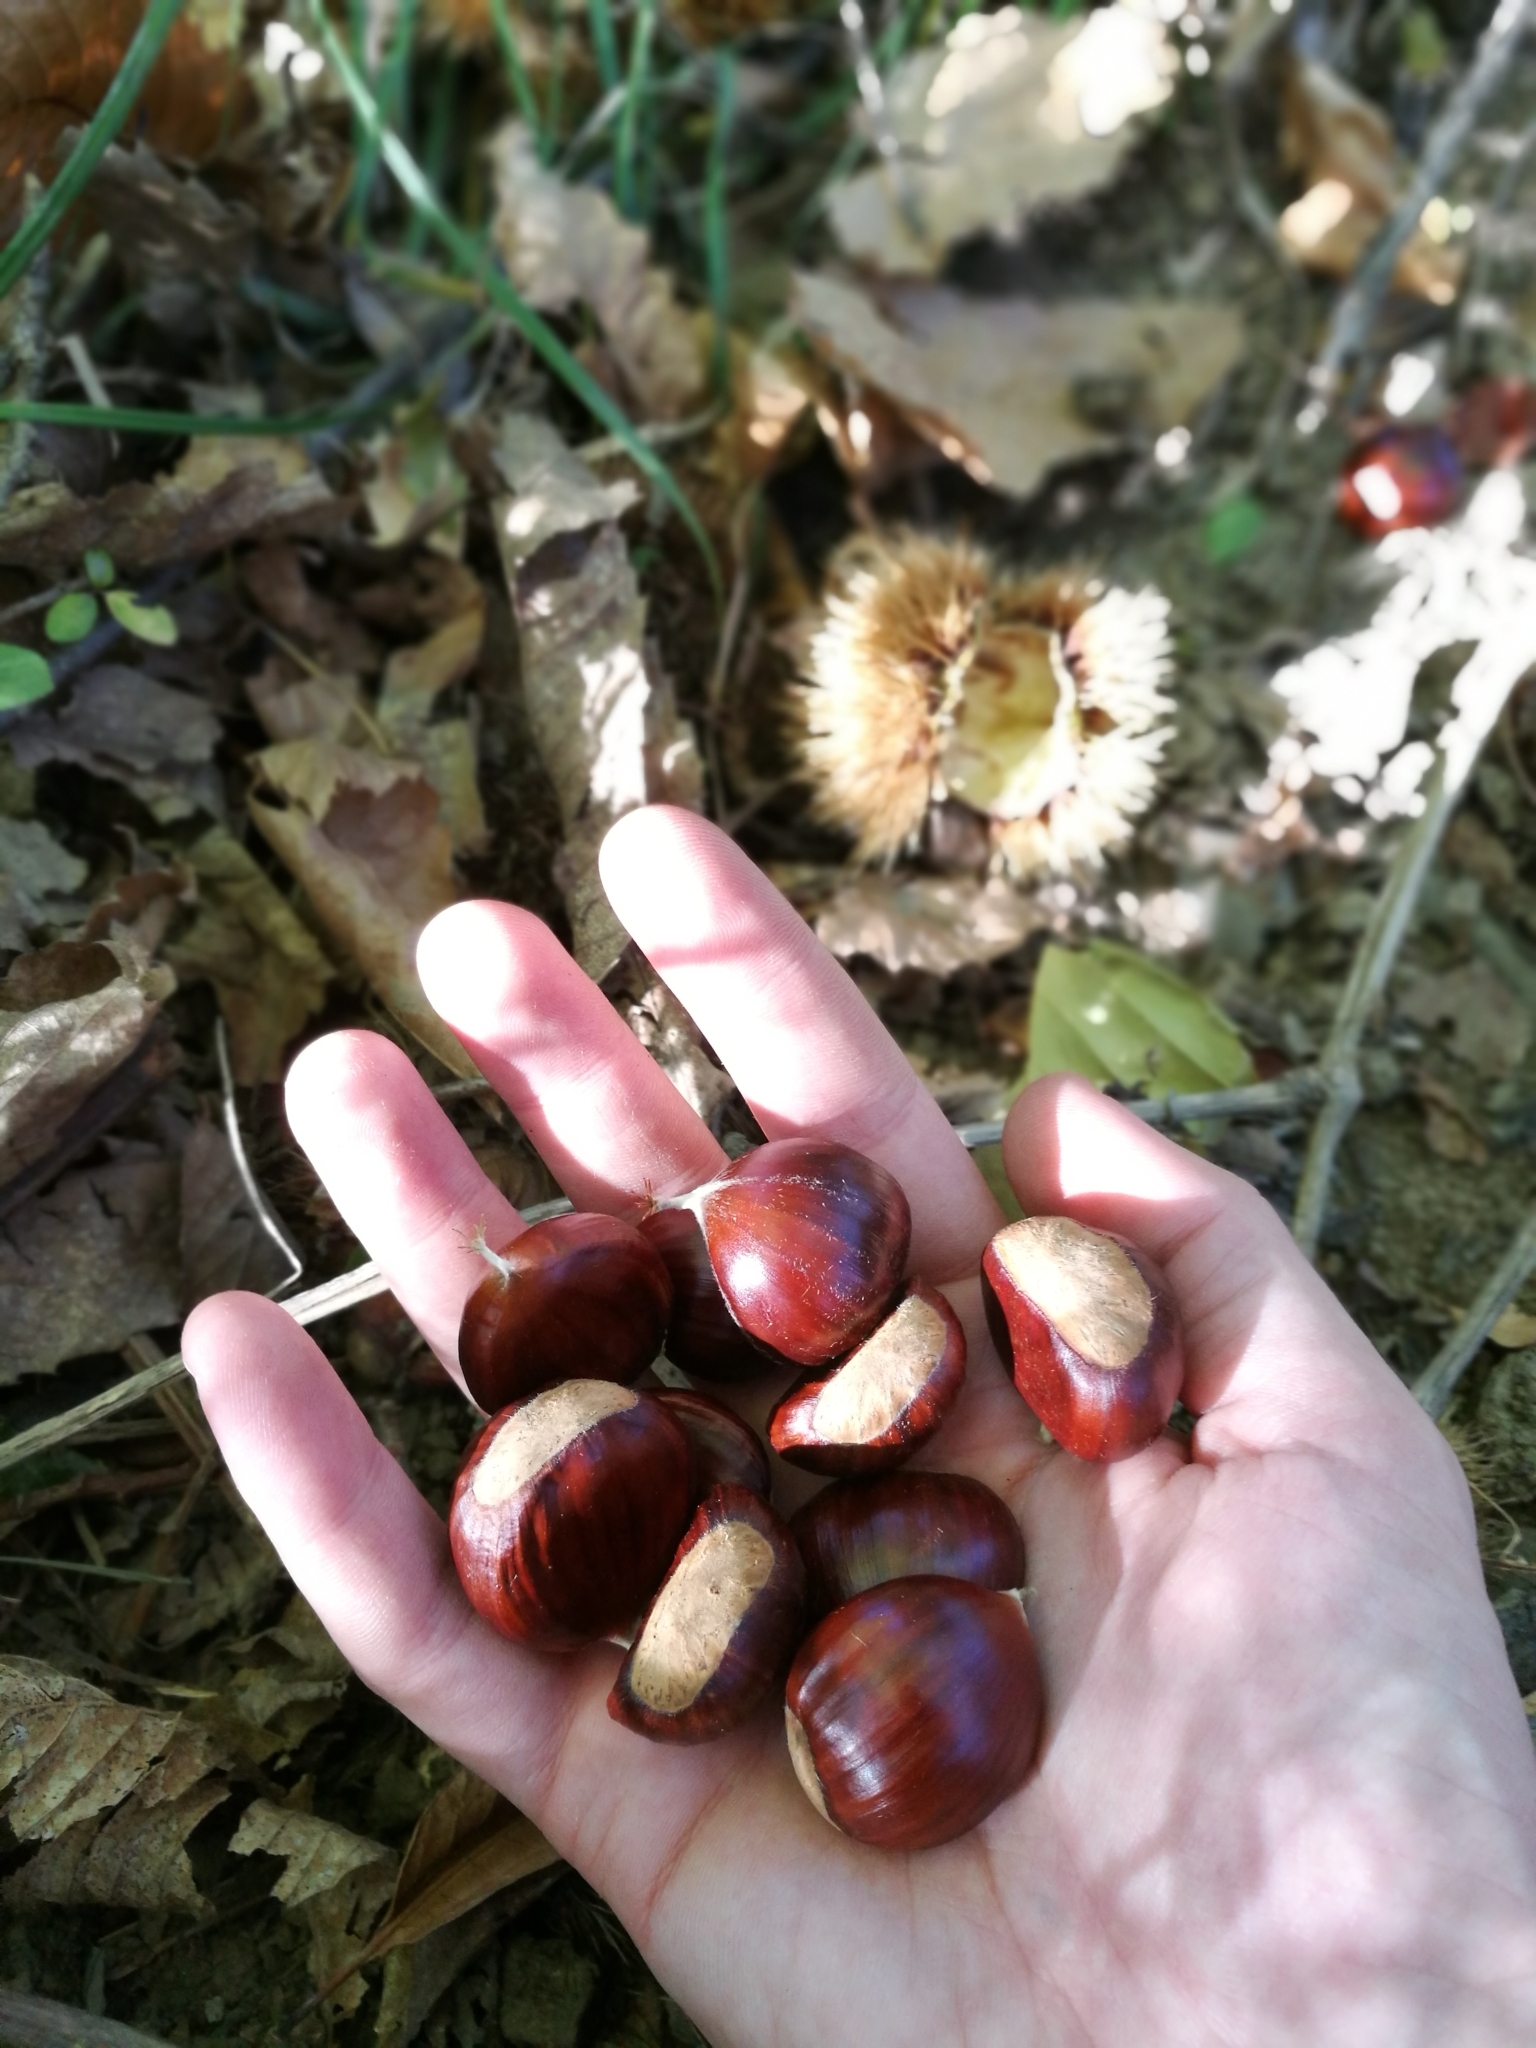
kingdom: Plantae
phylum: Tracheophyta
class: Magnoliopsida
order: Fagales
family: Fagaceae
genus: Castanea
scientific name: Castanea sativa
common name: Sweet chestnut
